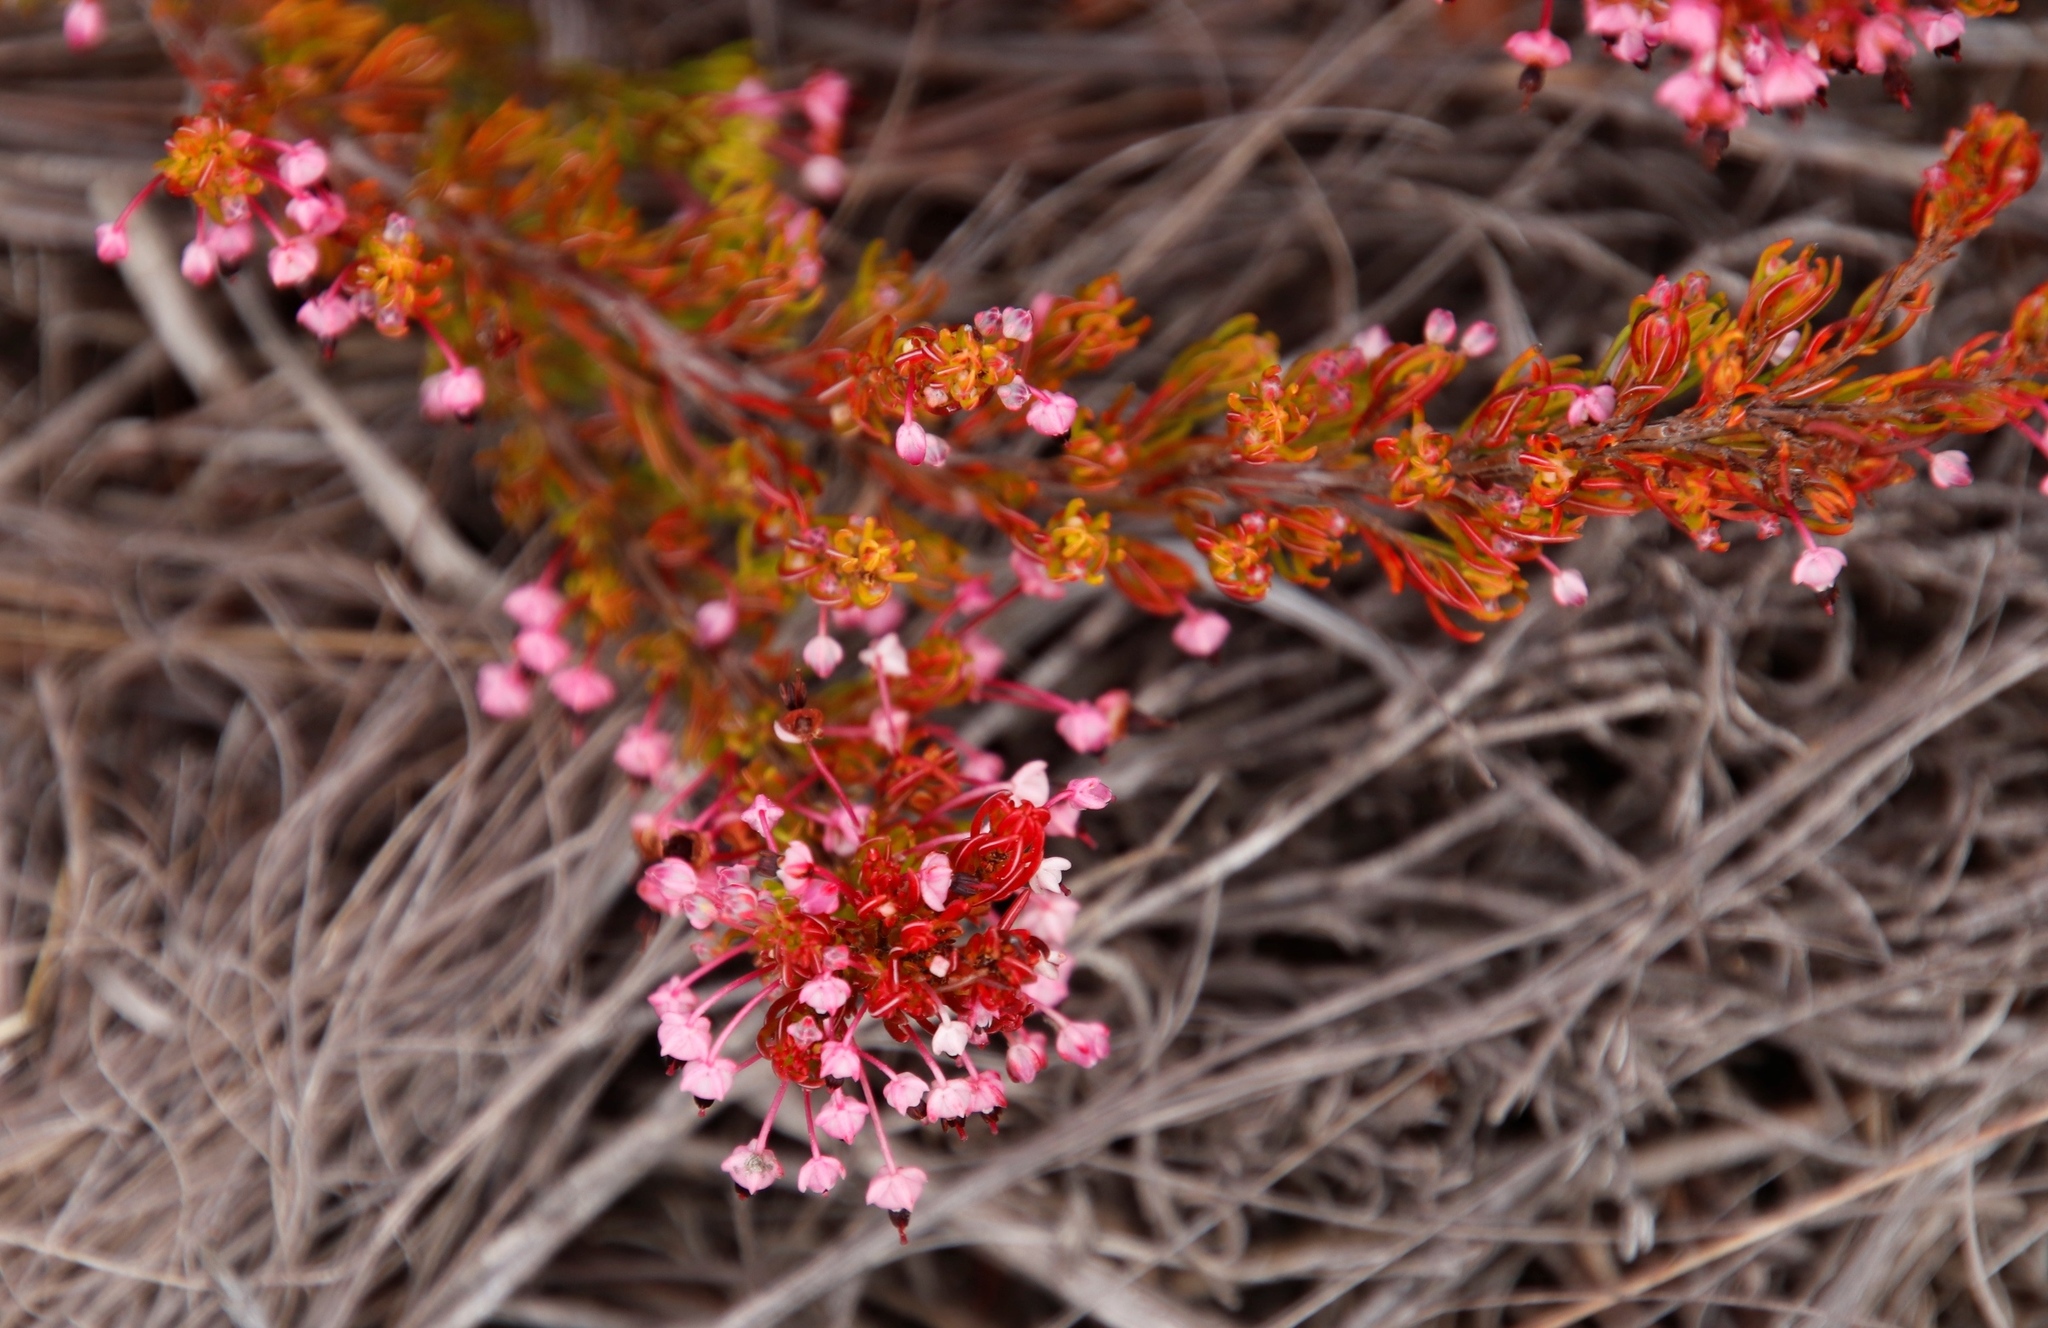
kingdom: Plantae
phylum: Tracheophyta
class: Magnoliopsida
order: Ericales
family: Ericaceae
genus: Erica
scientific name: Erica rubiginosa
